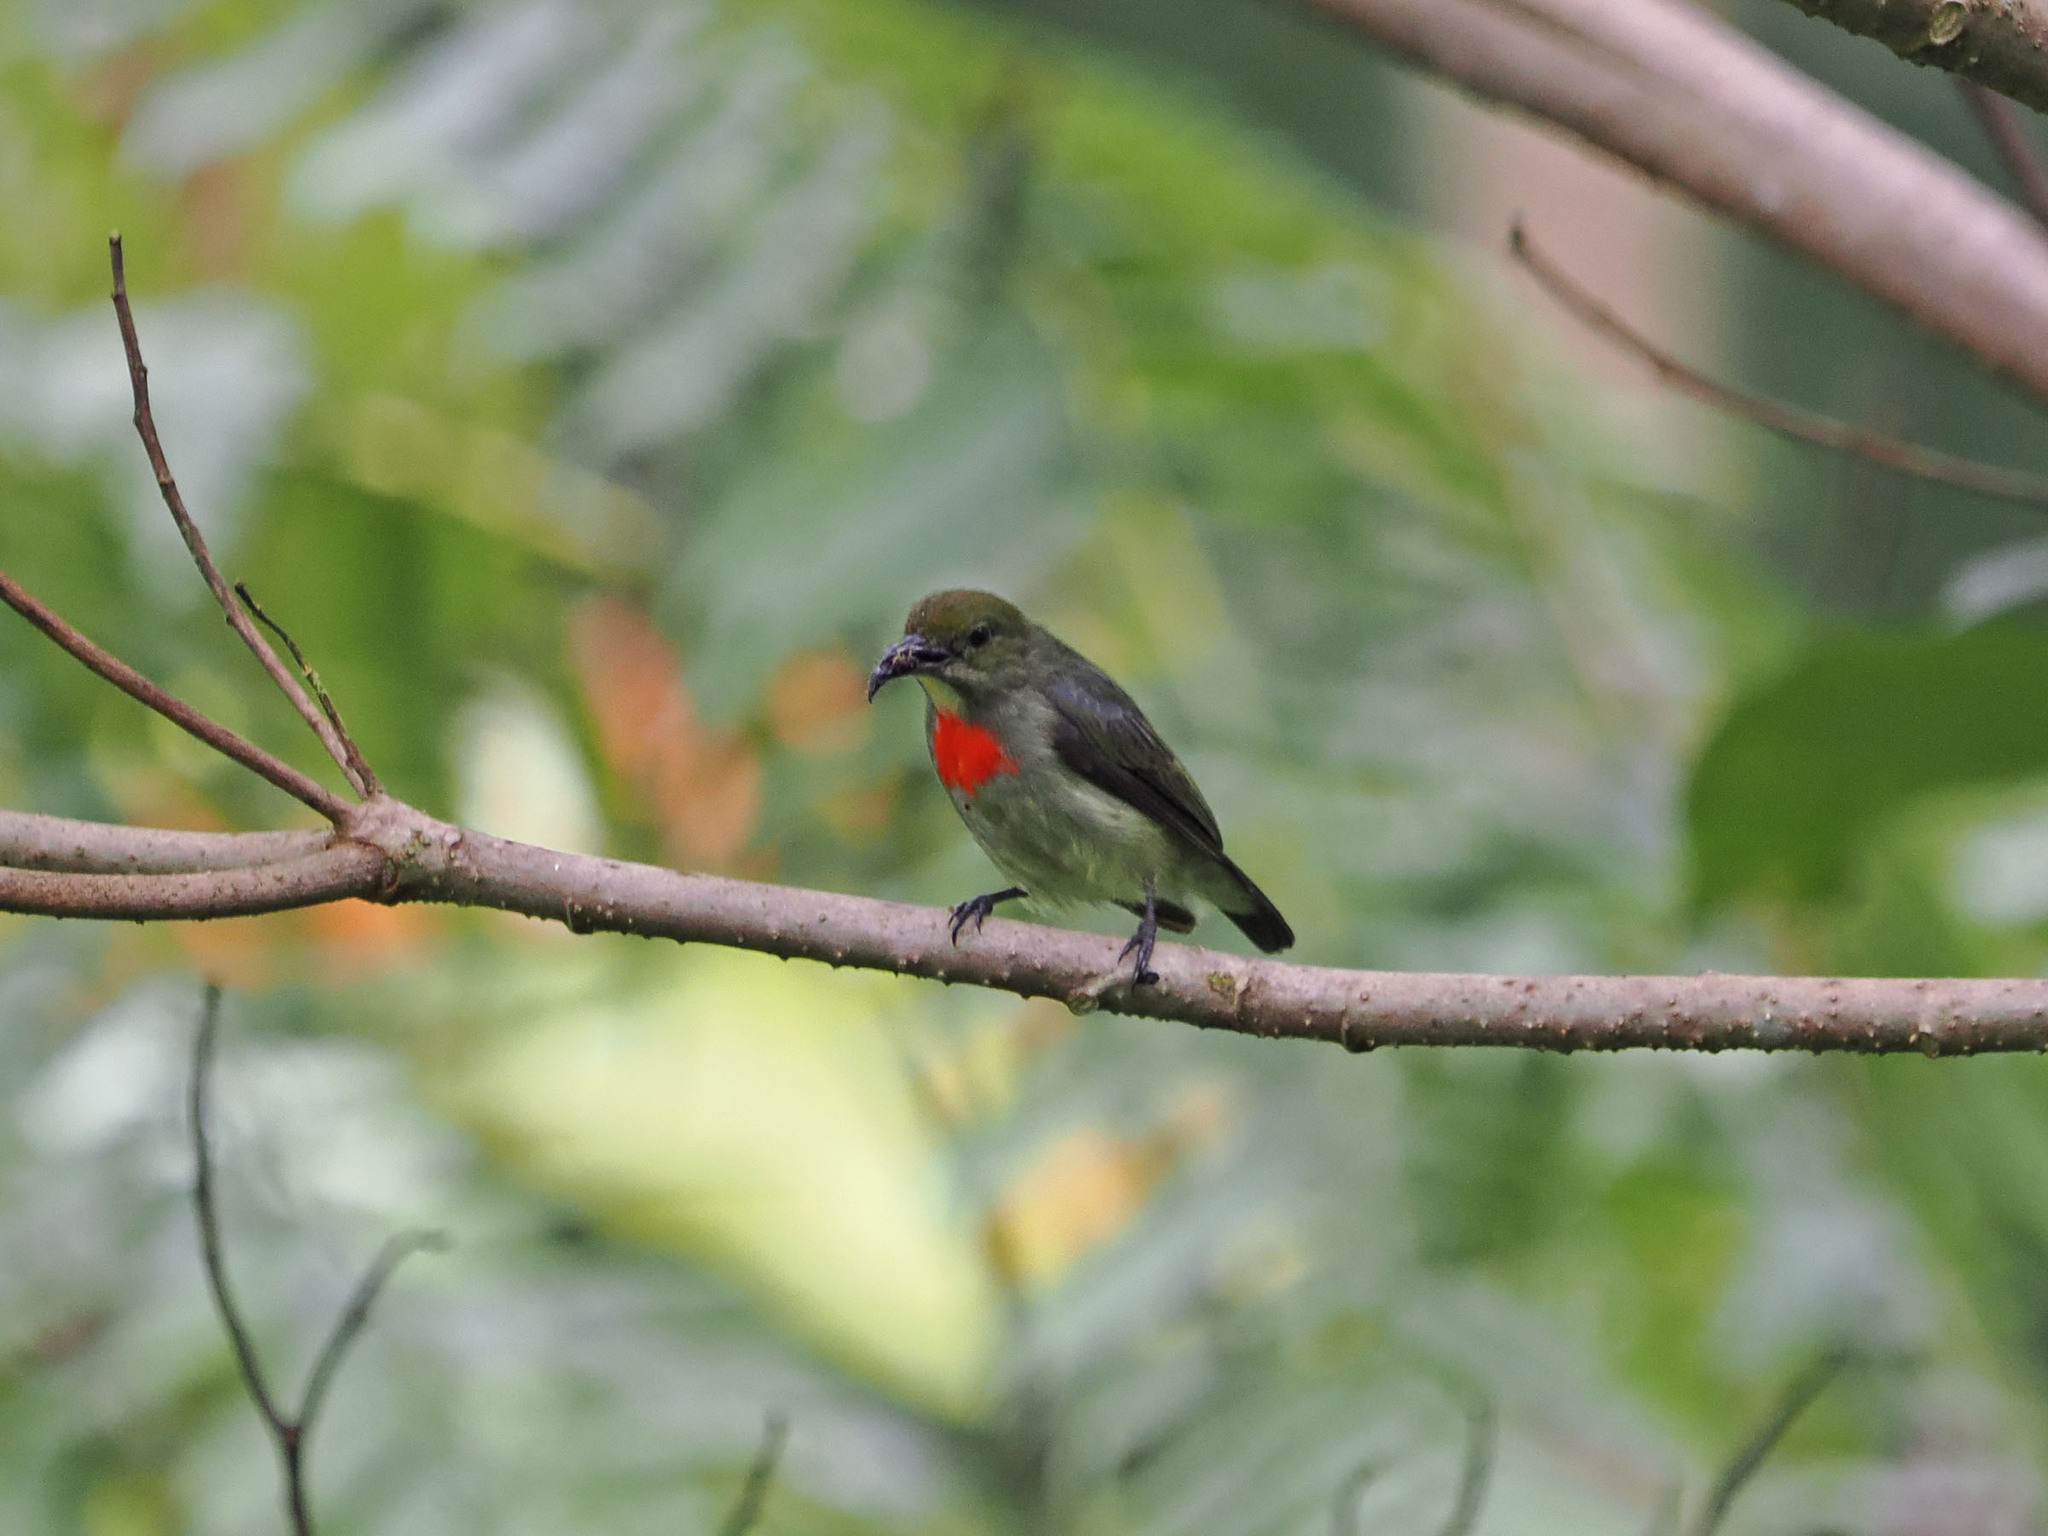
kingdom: Animalia
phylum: Chordata
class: Aves
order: Passeriformes
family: Dicaeidae
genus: Dicaeum
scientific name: Dicaeum pectorale
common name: Olive-crowned flowerpecker
